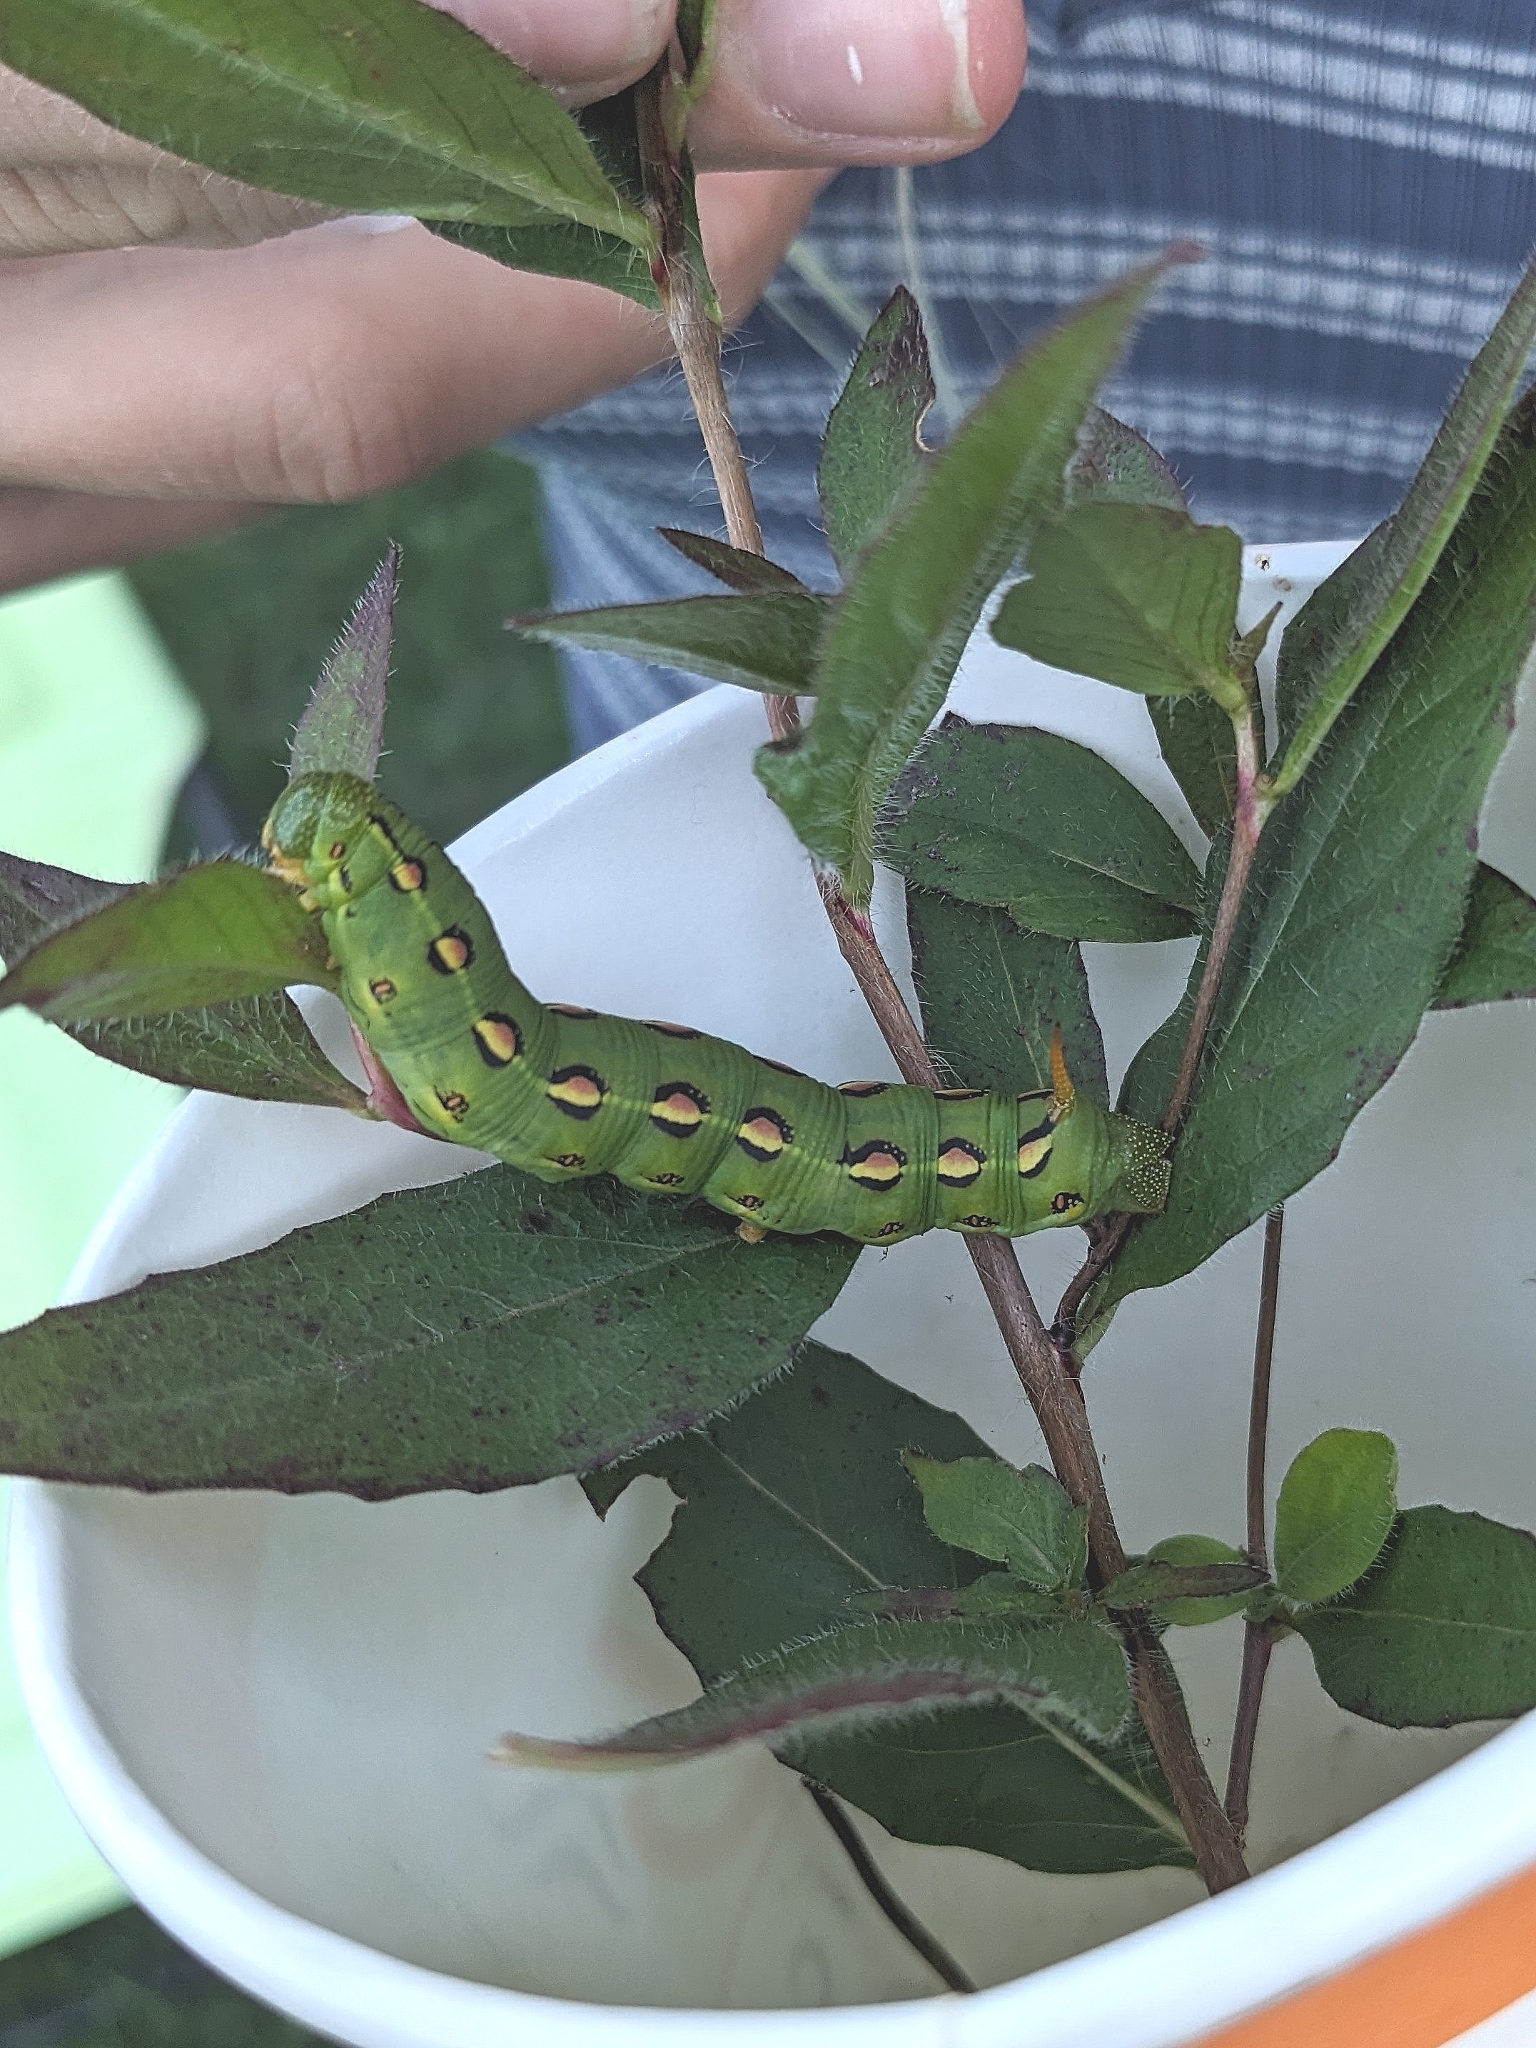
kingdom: Animalia
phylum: Arthropoda
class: Insecta
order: Lepidoptera
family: Sphingidae
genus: Hyles
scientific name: Hyles lineata
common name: White-lined sphinx
